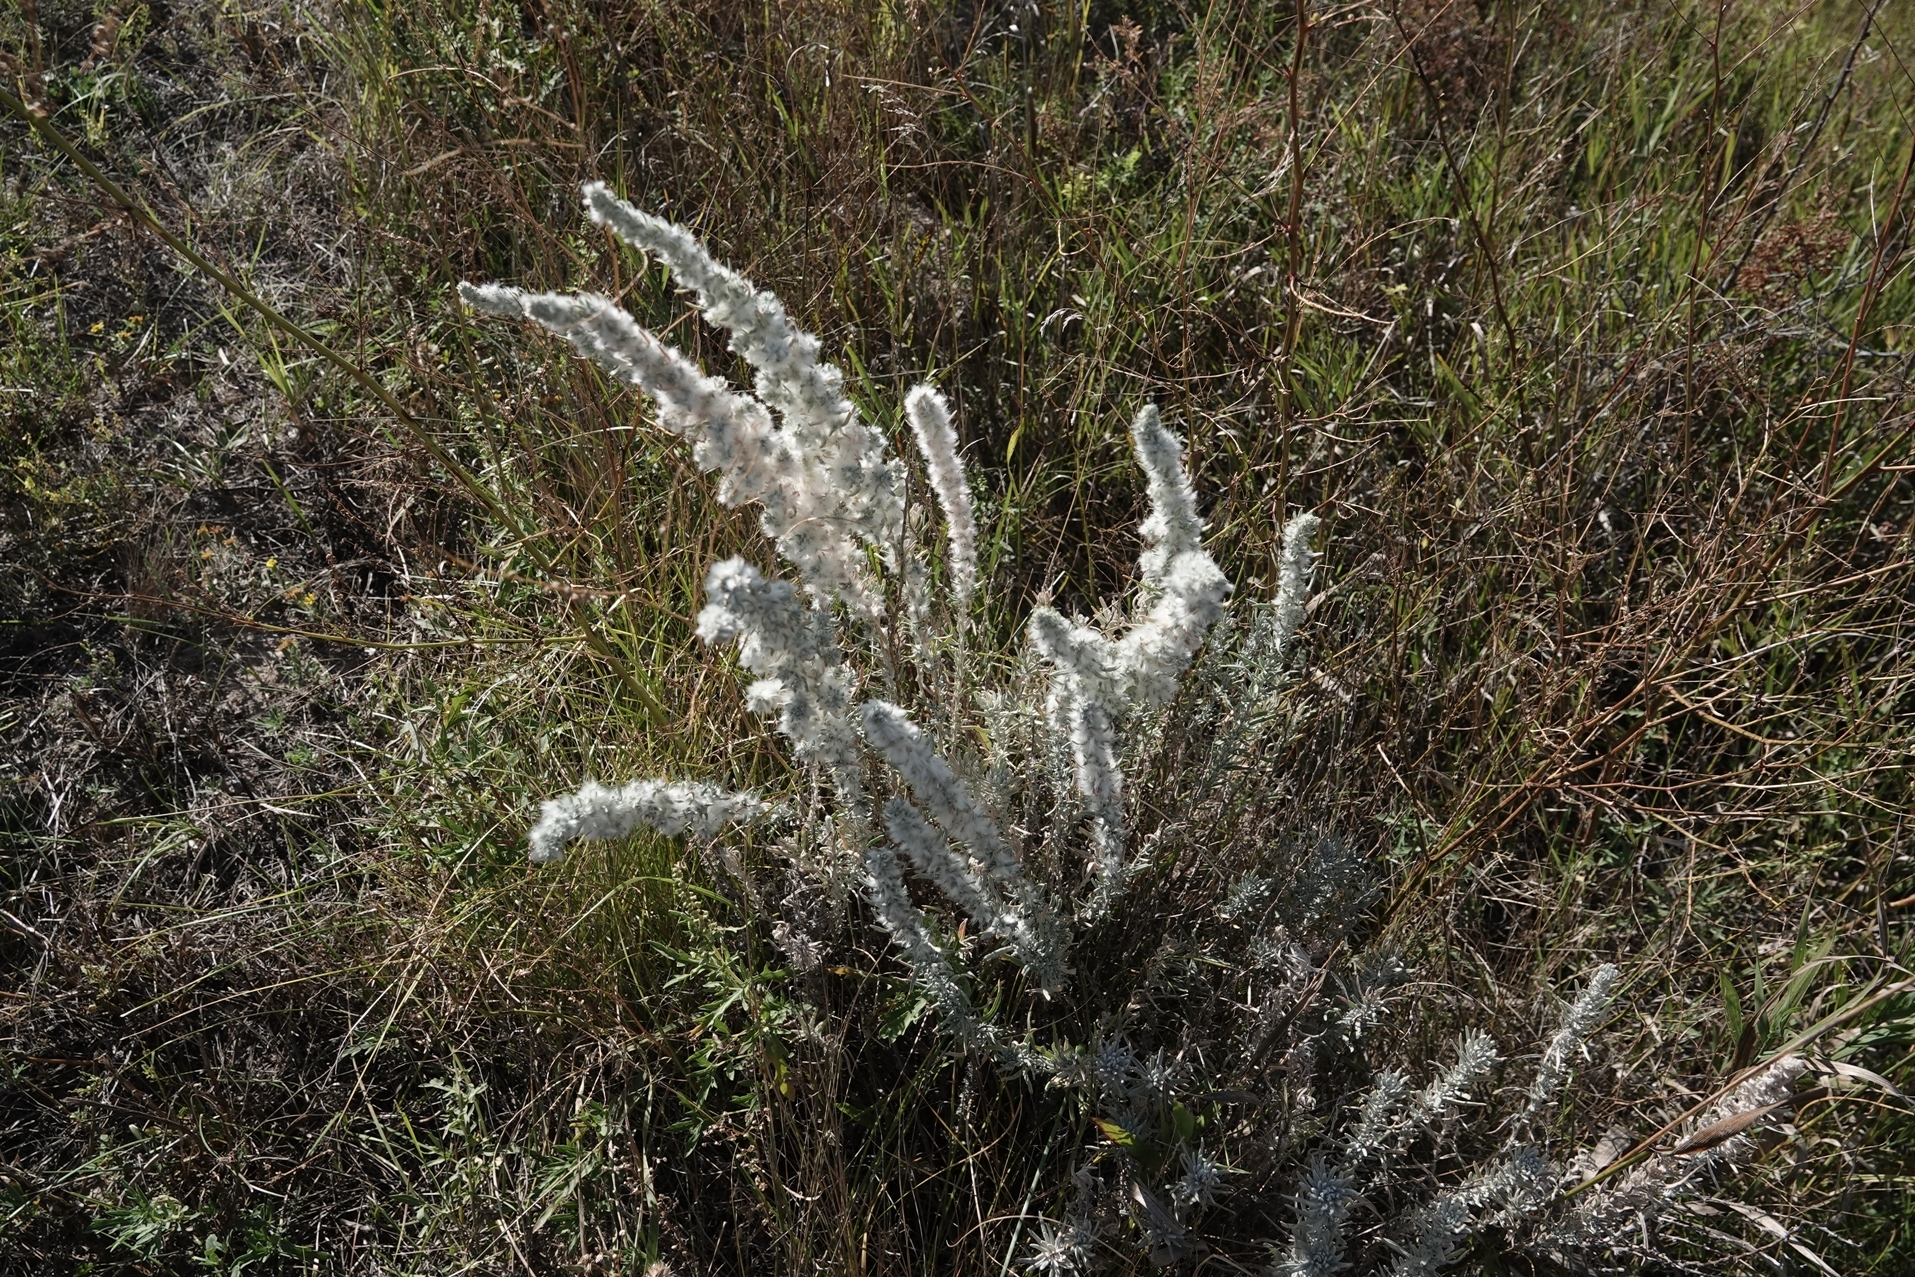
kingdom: Plantae
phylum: Tracheophyta
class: Magnoliopsida
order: Caryophyllales
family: Amaranthaceae
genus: Krascheninnikovia
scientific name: Krascheninnikovia lanata
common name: Winterfat
